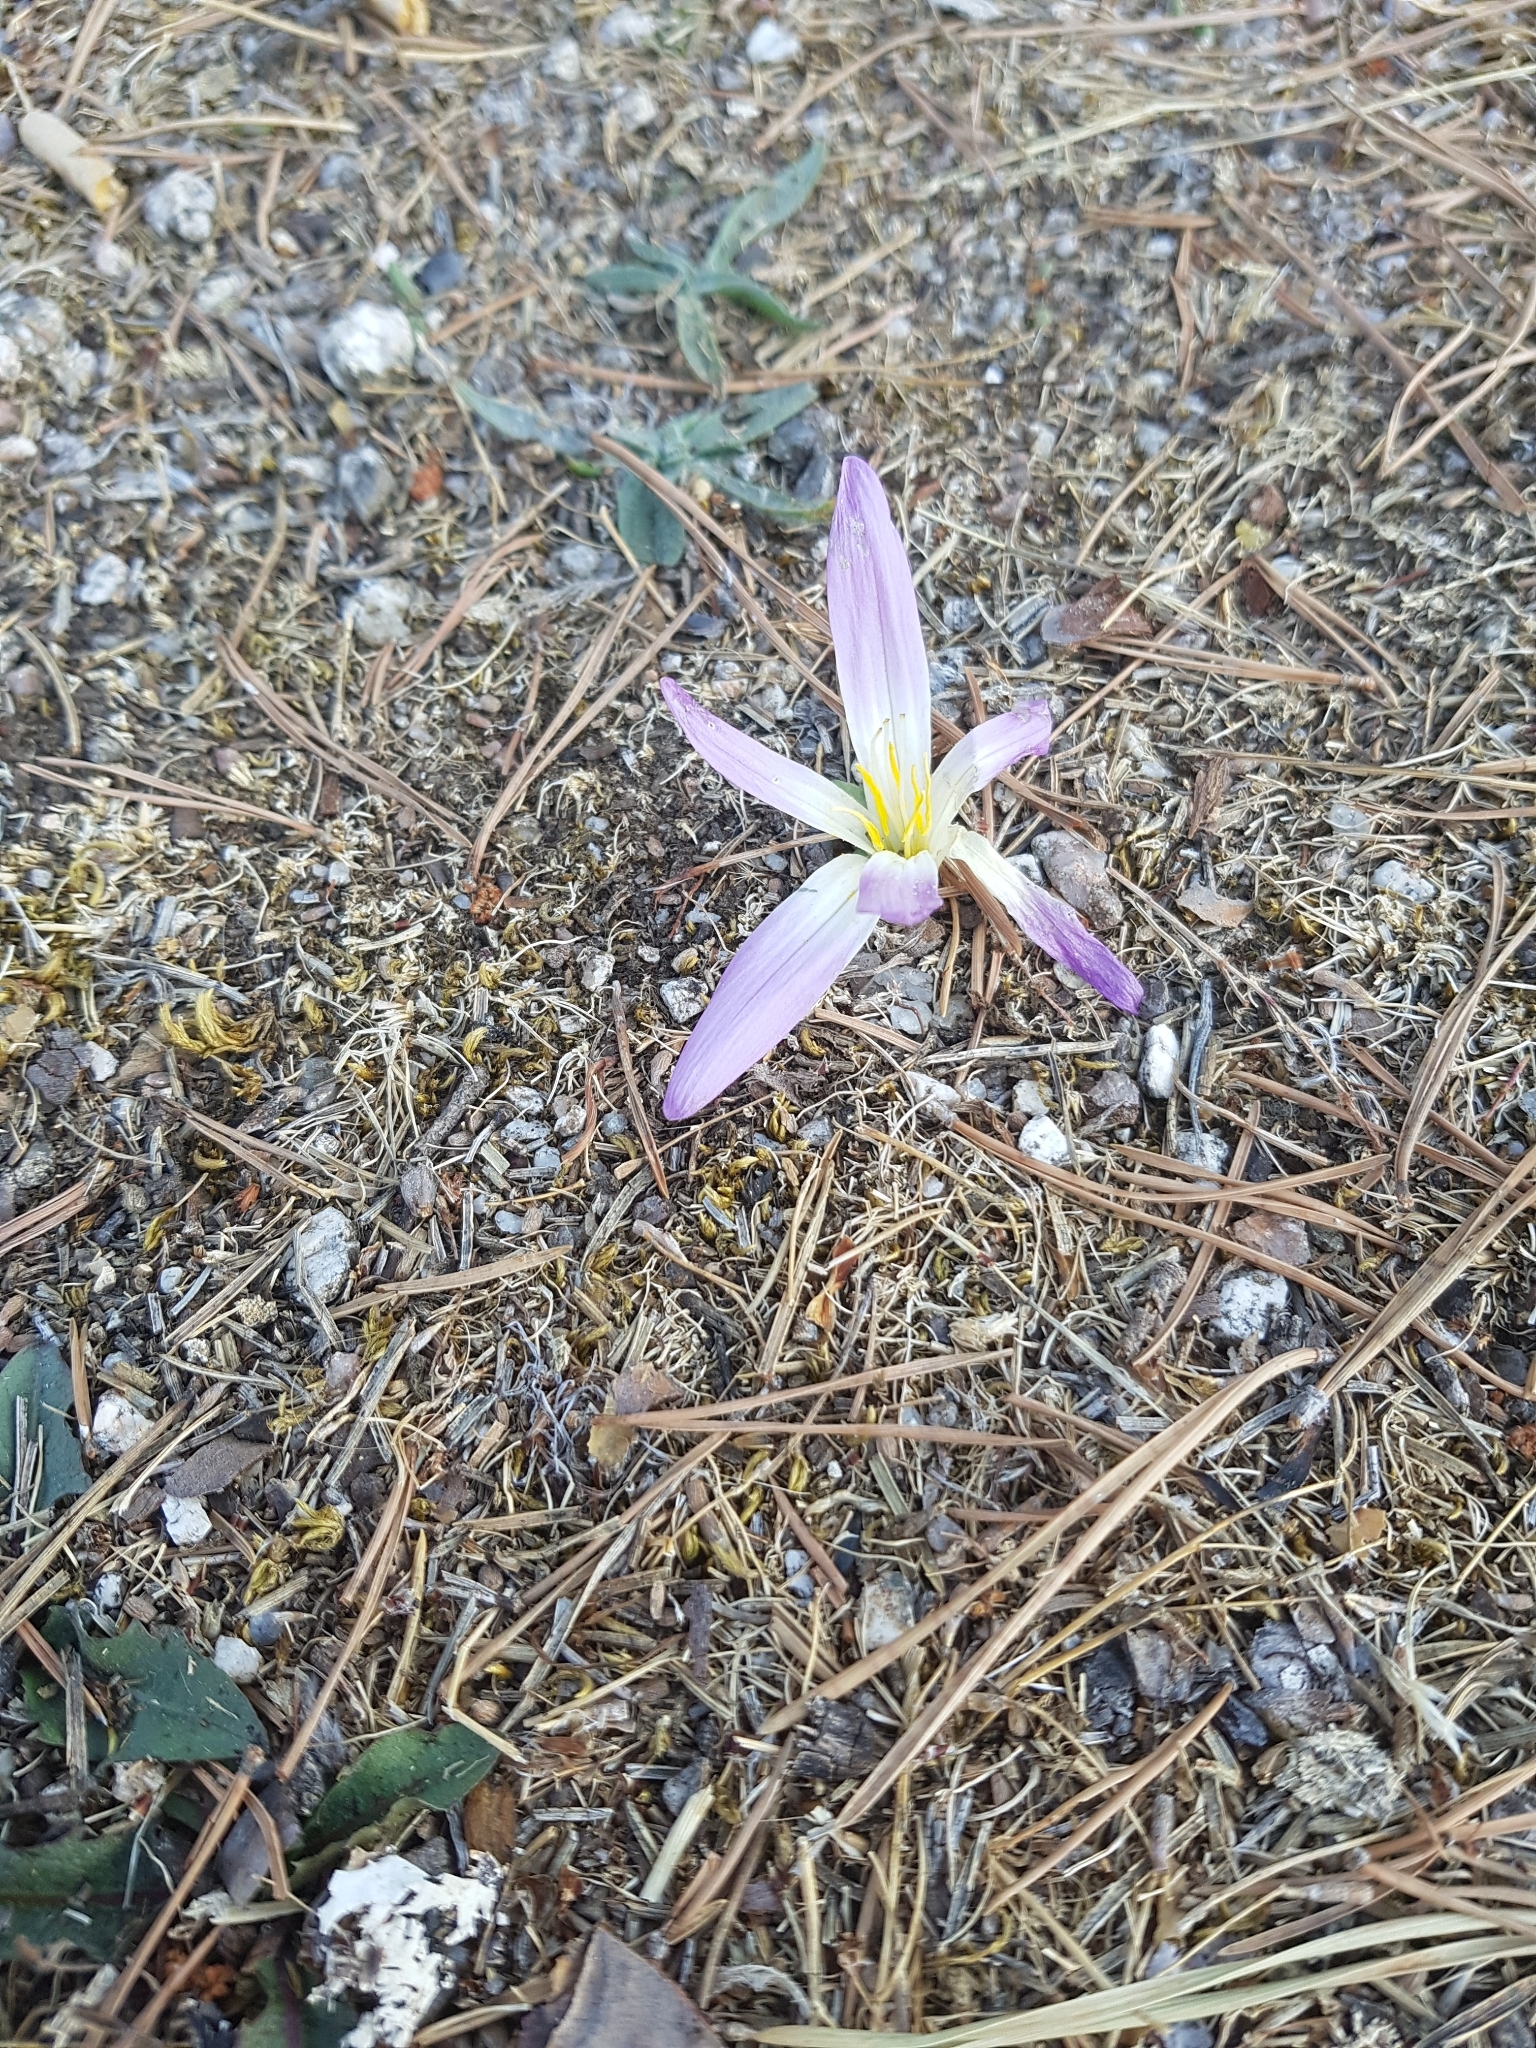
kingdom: Plantae
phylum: Tracheophyta
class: Liliopsida
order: Liliales
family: Colchicaceae
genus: Colchicum
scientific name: Colchicum montanum
